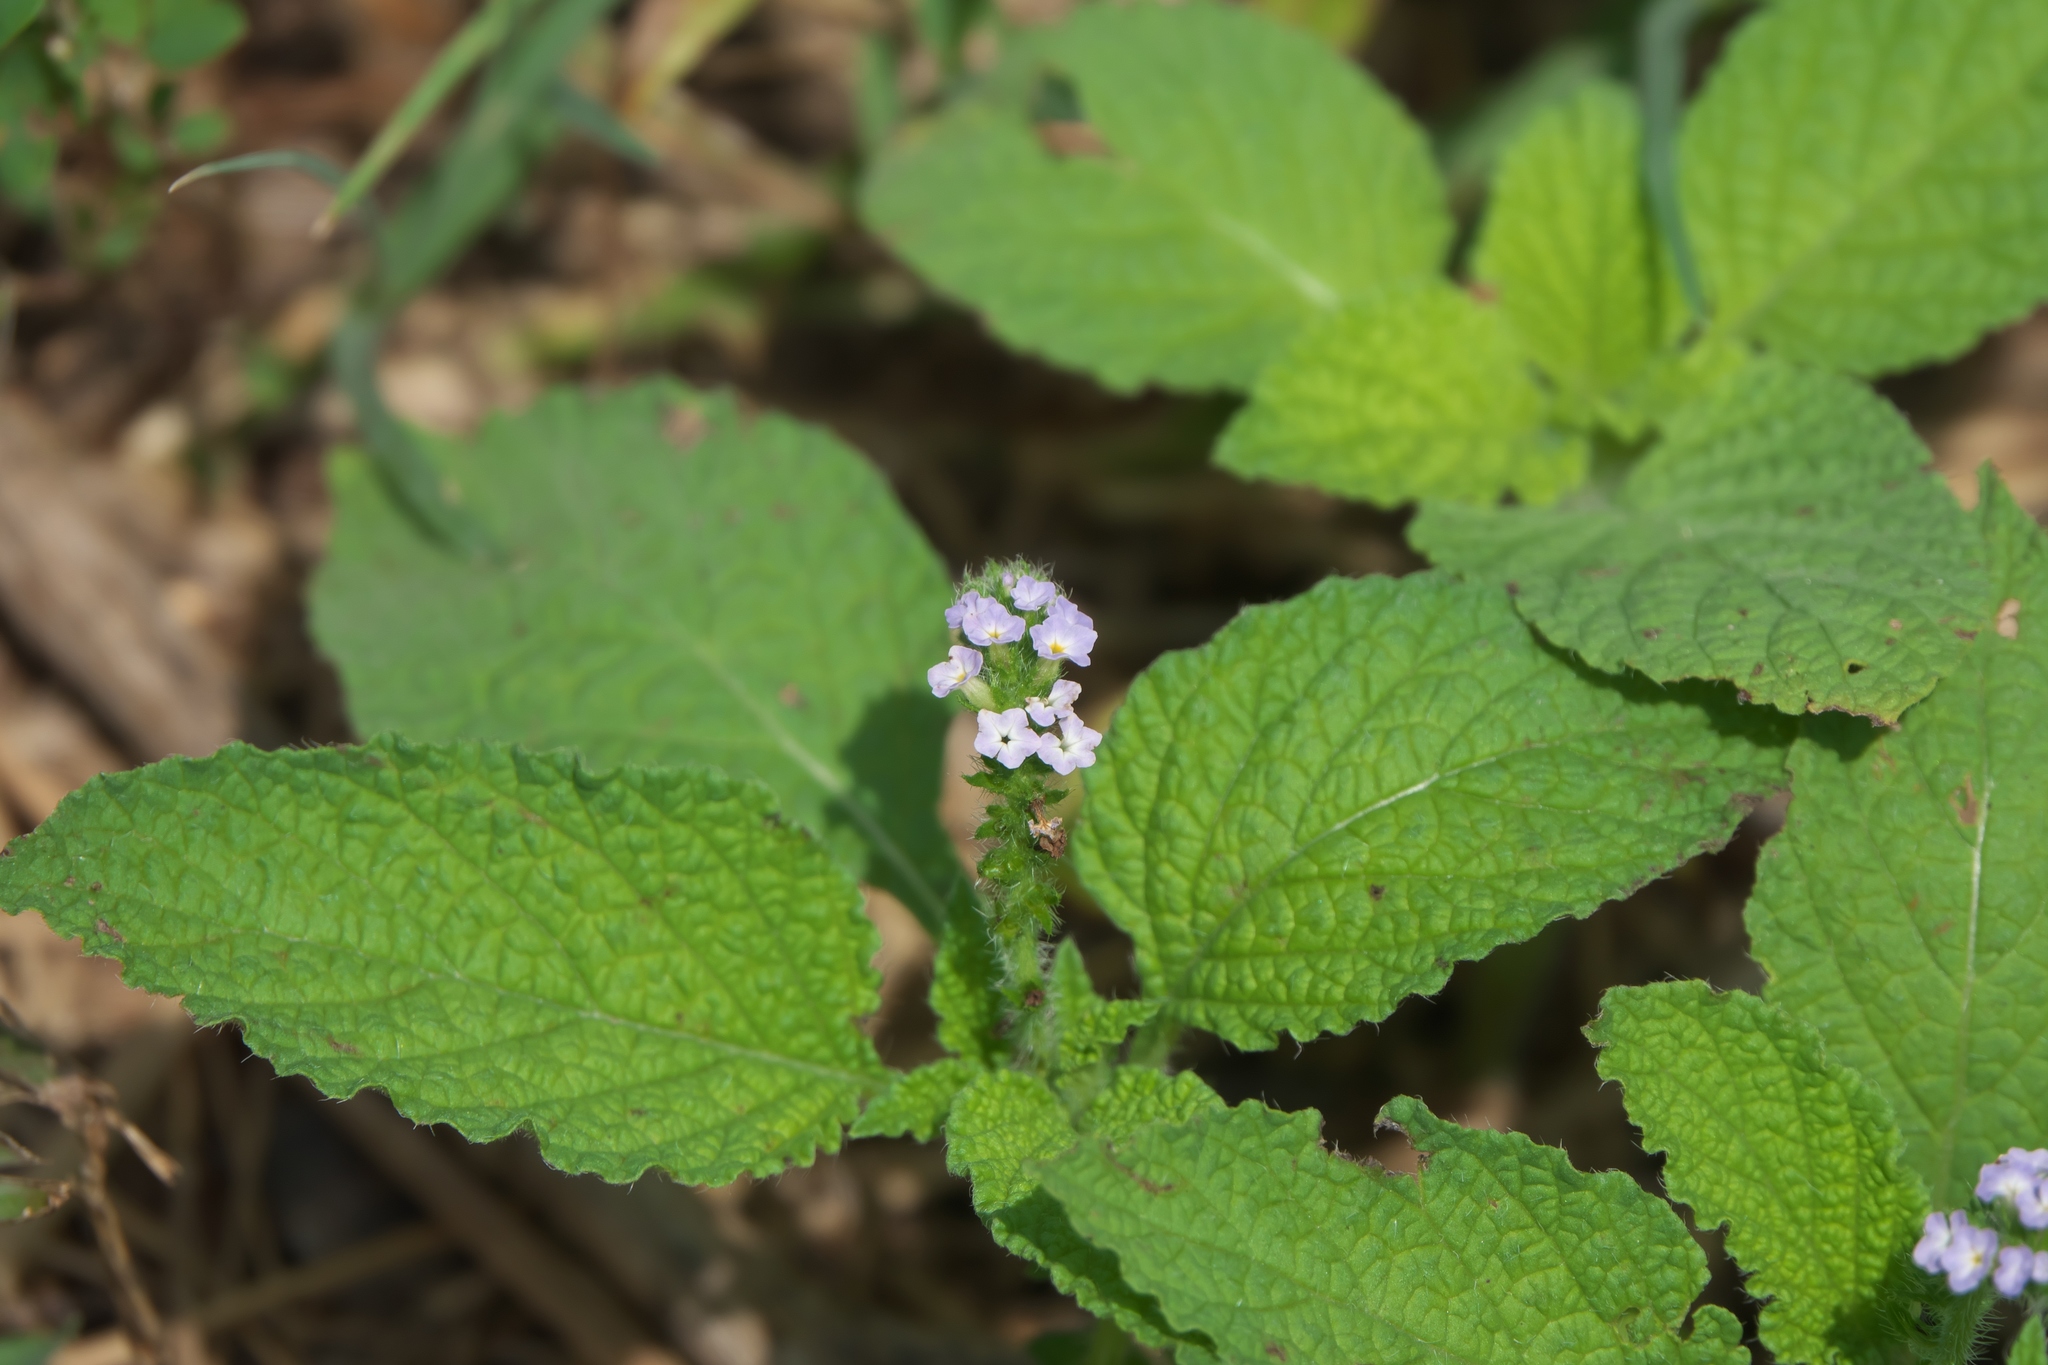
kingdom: Plantae
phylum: Tracheophyta
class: Magnoliopsida
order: Boraginales
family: Heliotropiaceae
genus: Heliotropium
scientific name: Heliotropium indicum
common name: Indian heliotrope
